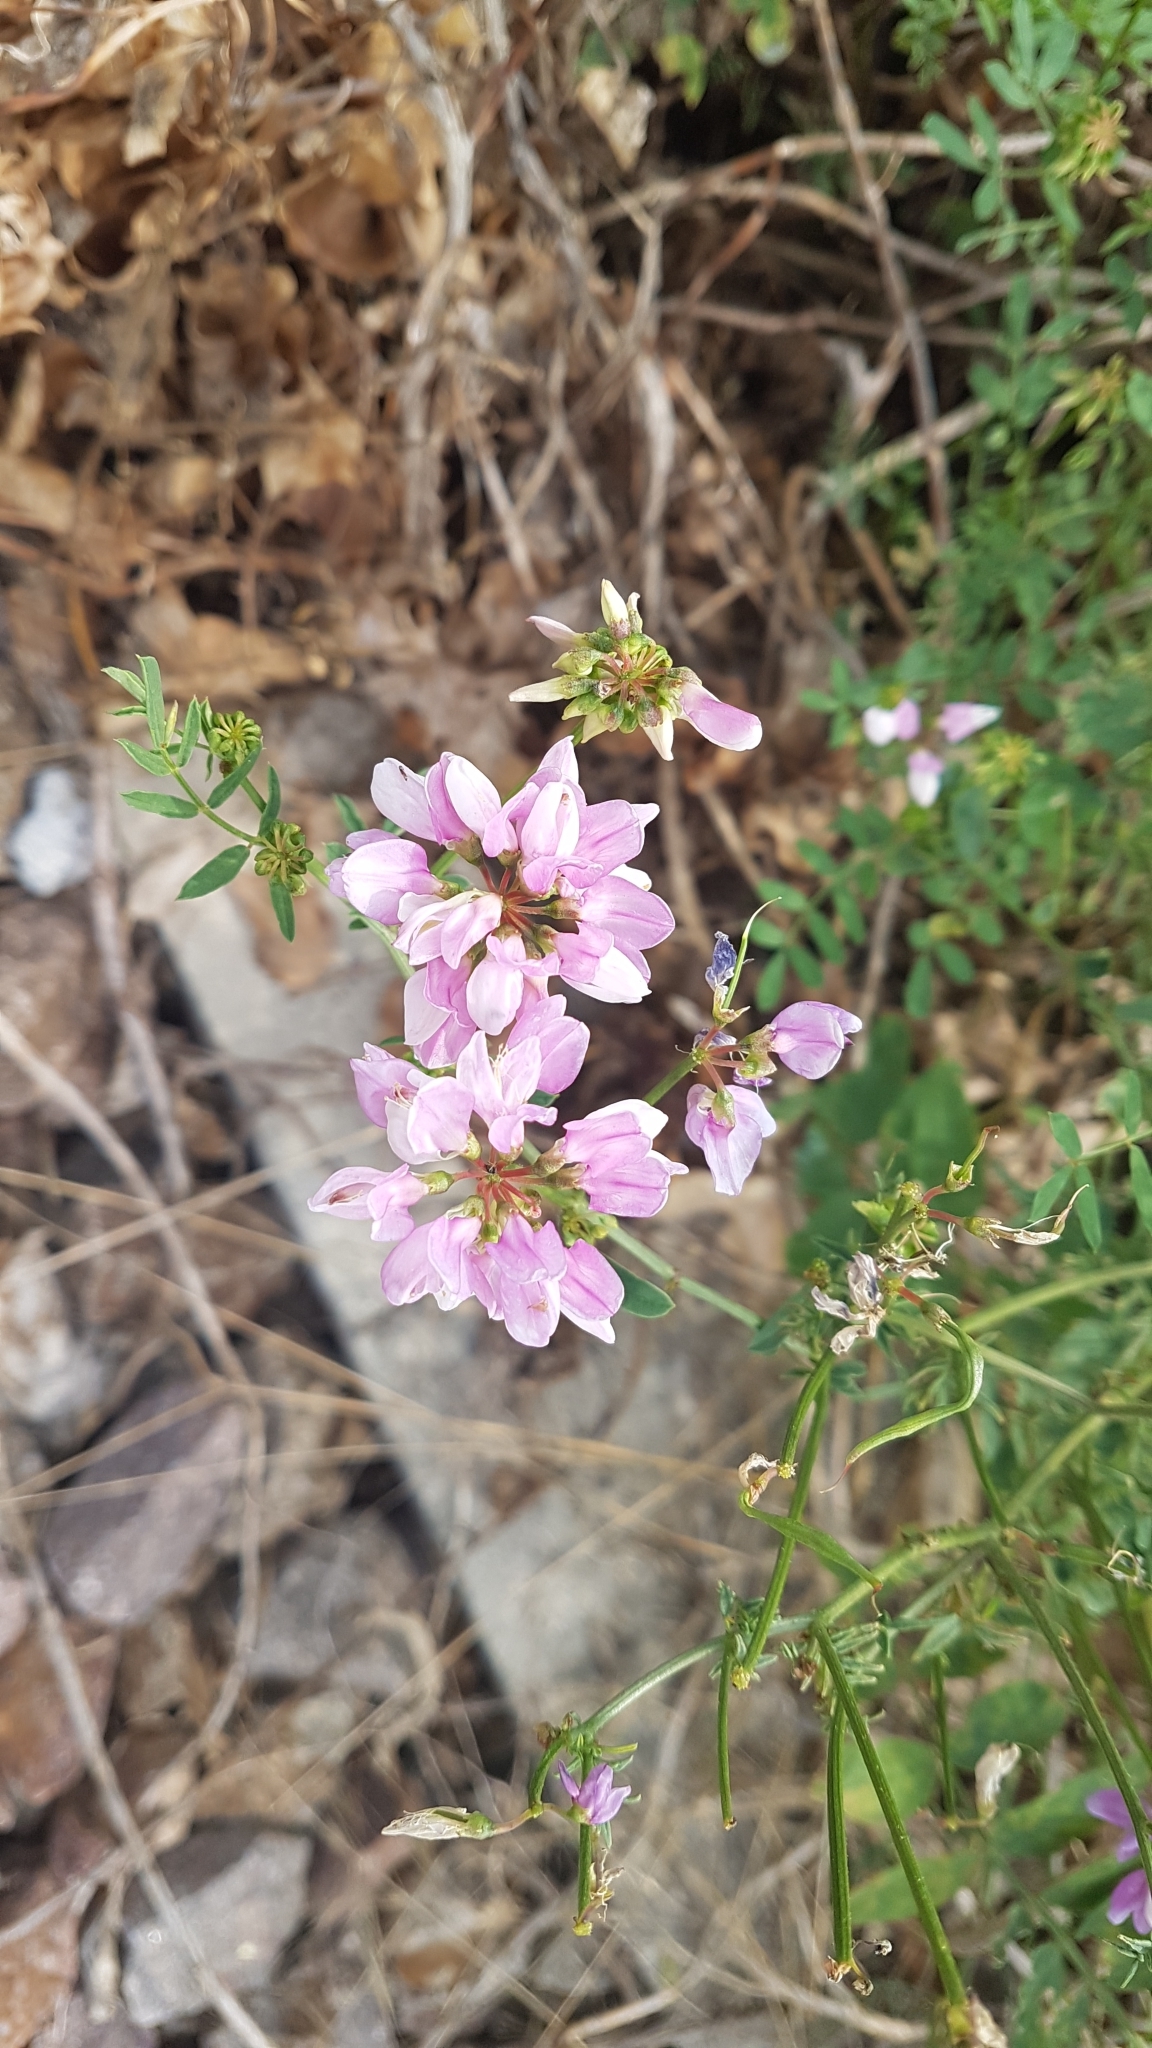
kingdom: Plantae
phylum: Tracheophyta
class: Magnoliopsida
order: Fabales
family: Fabaceae
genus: Coronilla
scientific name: Coronilla varia
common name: Crownvetch
